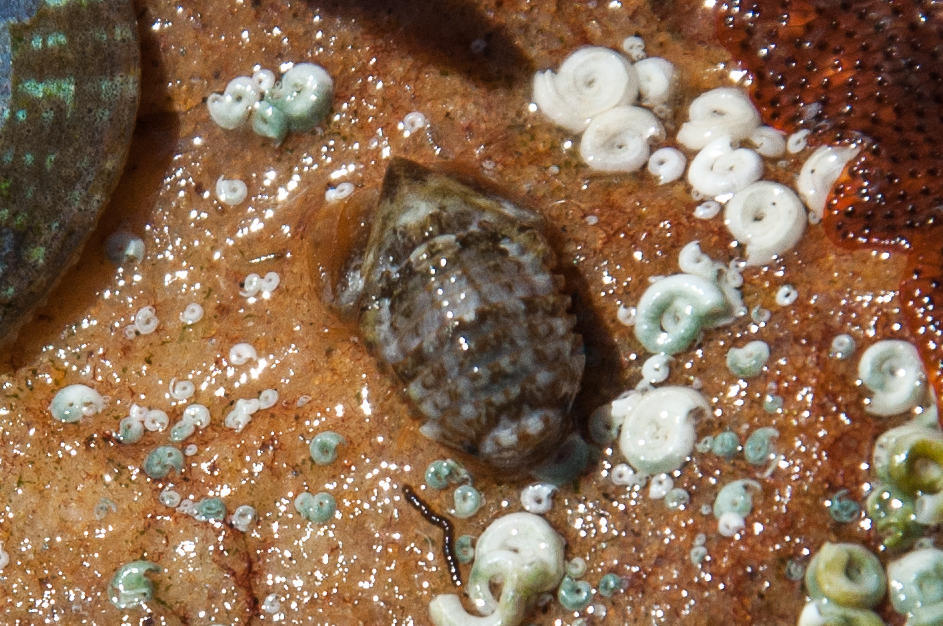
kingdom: Animalia
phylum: Arthropoda
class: Malacostraca
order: Isopoda
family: Sphaeromatidae
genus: Exosphaeroma
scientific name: Exosphaeroma planum
